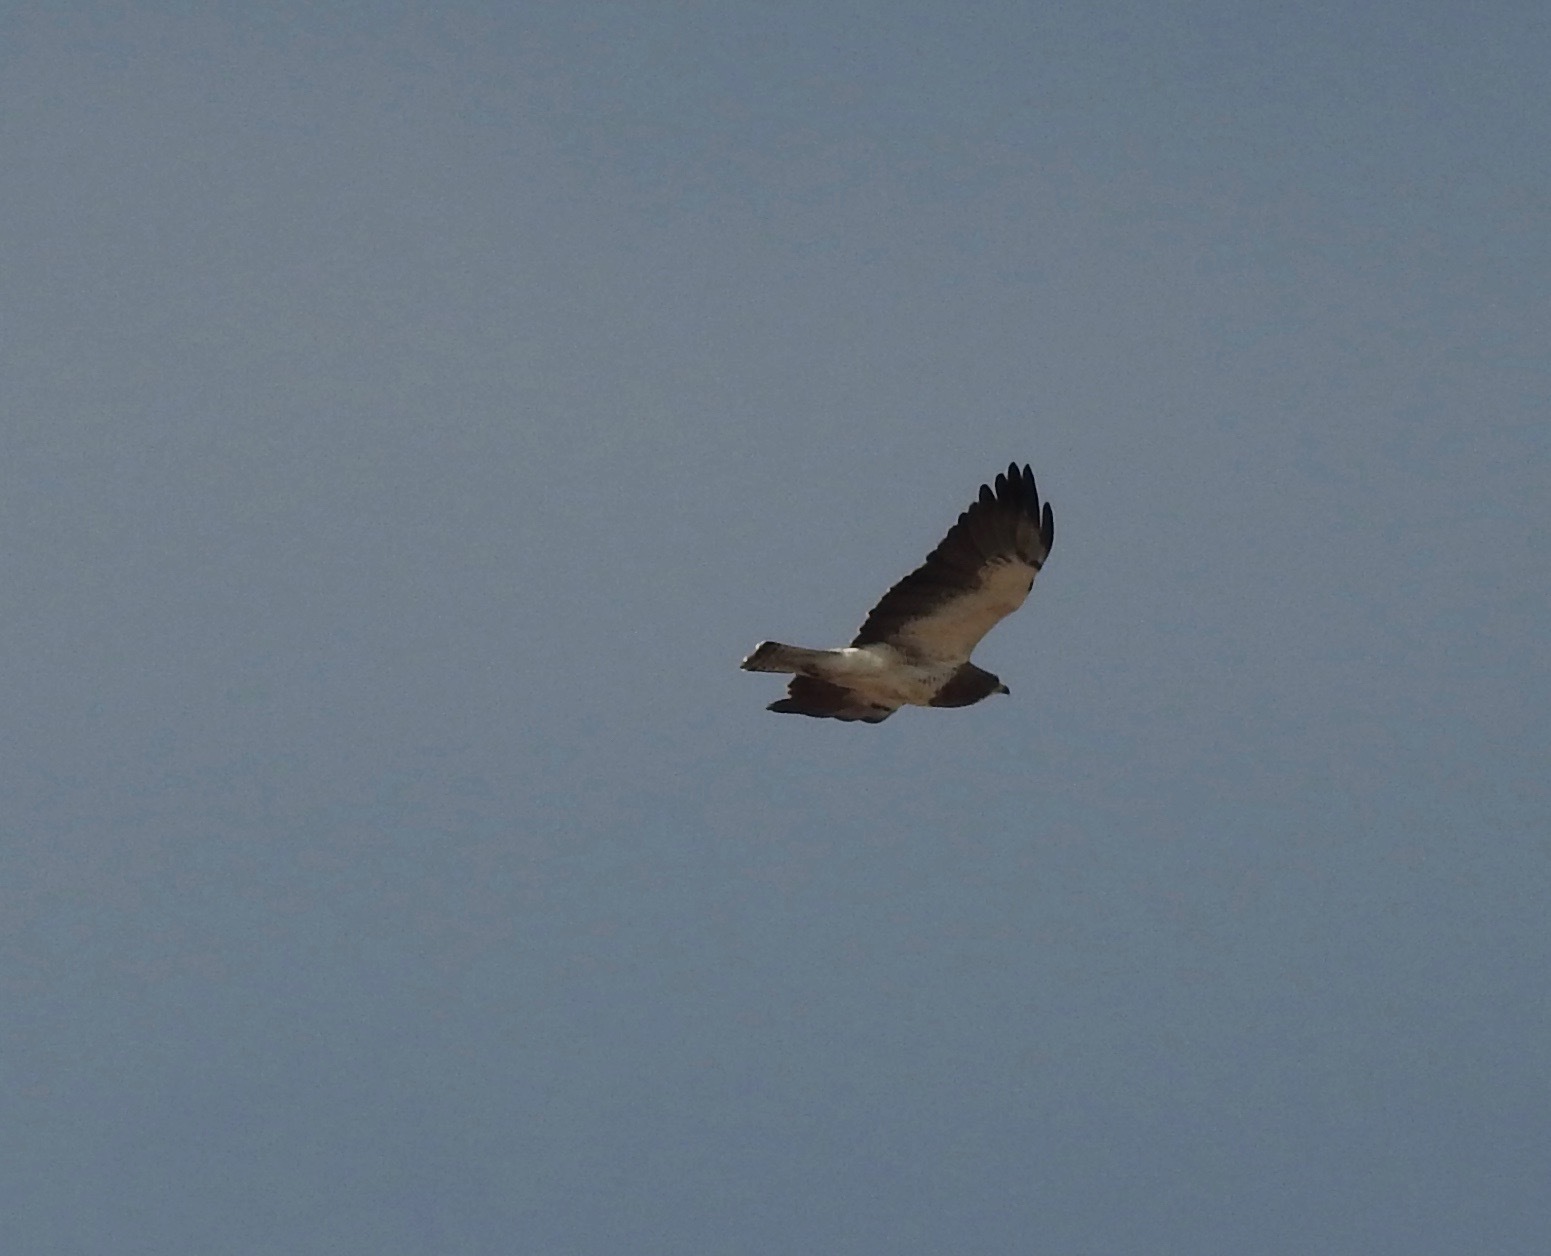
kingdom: Animalia
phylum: Chordata
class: Aves
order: Accipitriformes
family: Accipitridae
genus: Buteo
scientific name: Buteo swainsoni
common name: Swainson's hawk
